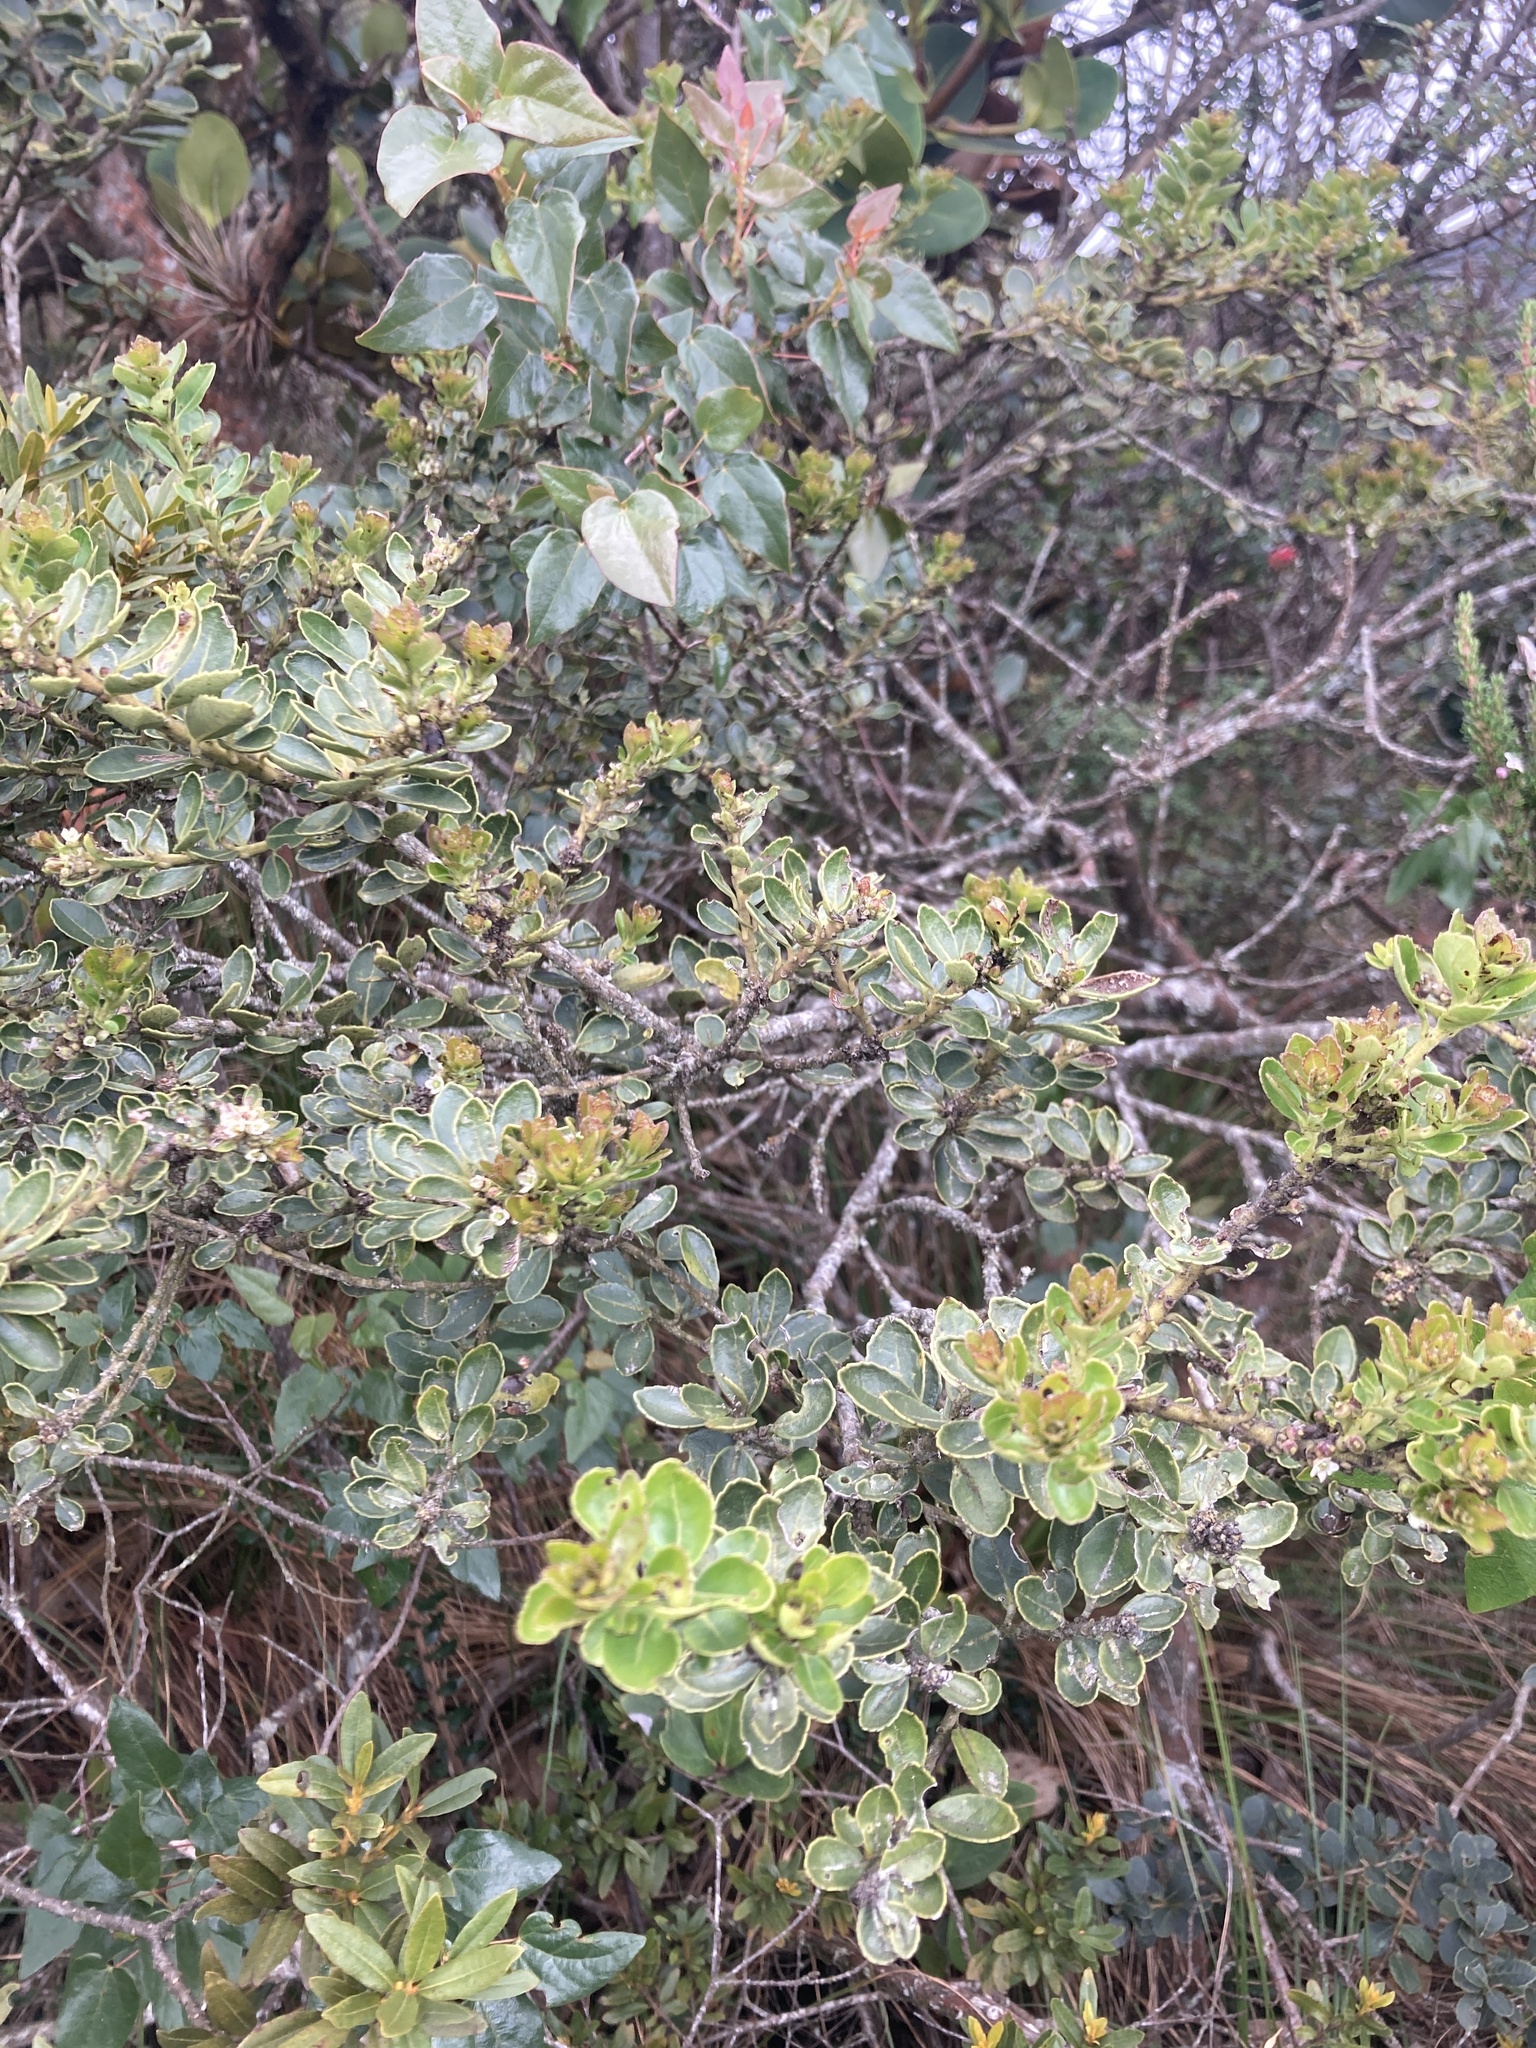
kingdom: Plantae
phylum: Tracheophyta
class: Magnoliopsida
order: Aquifoliales
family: Aquifoliaceae
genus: Ilex
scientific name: Ilex microphylla
